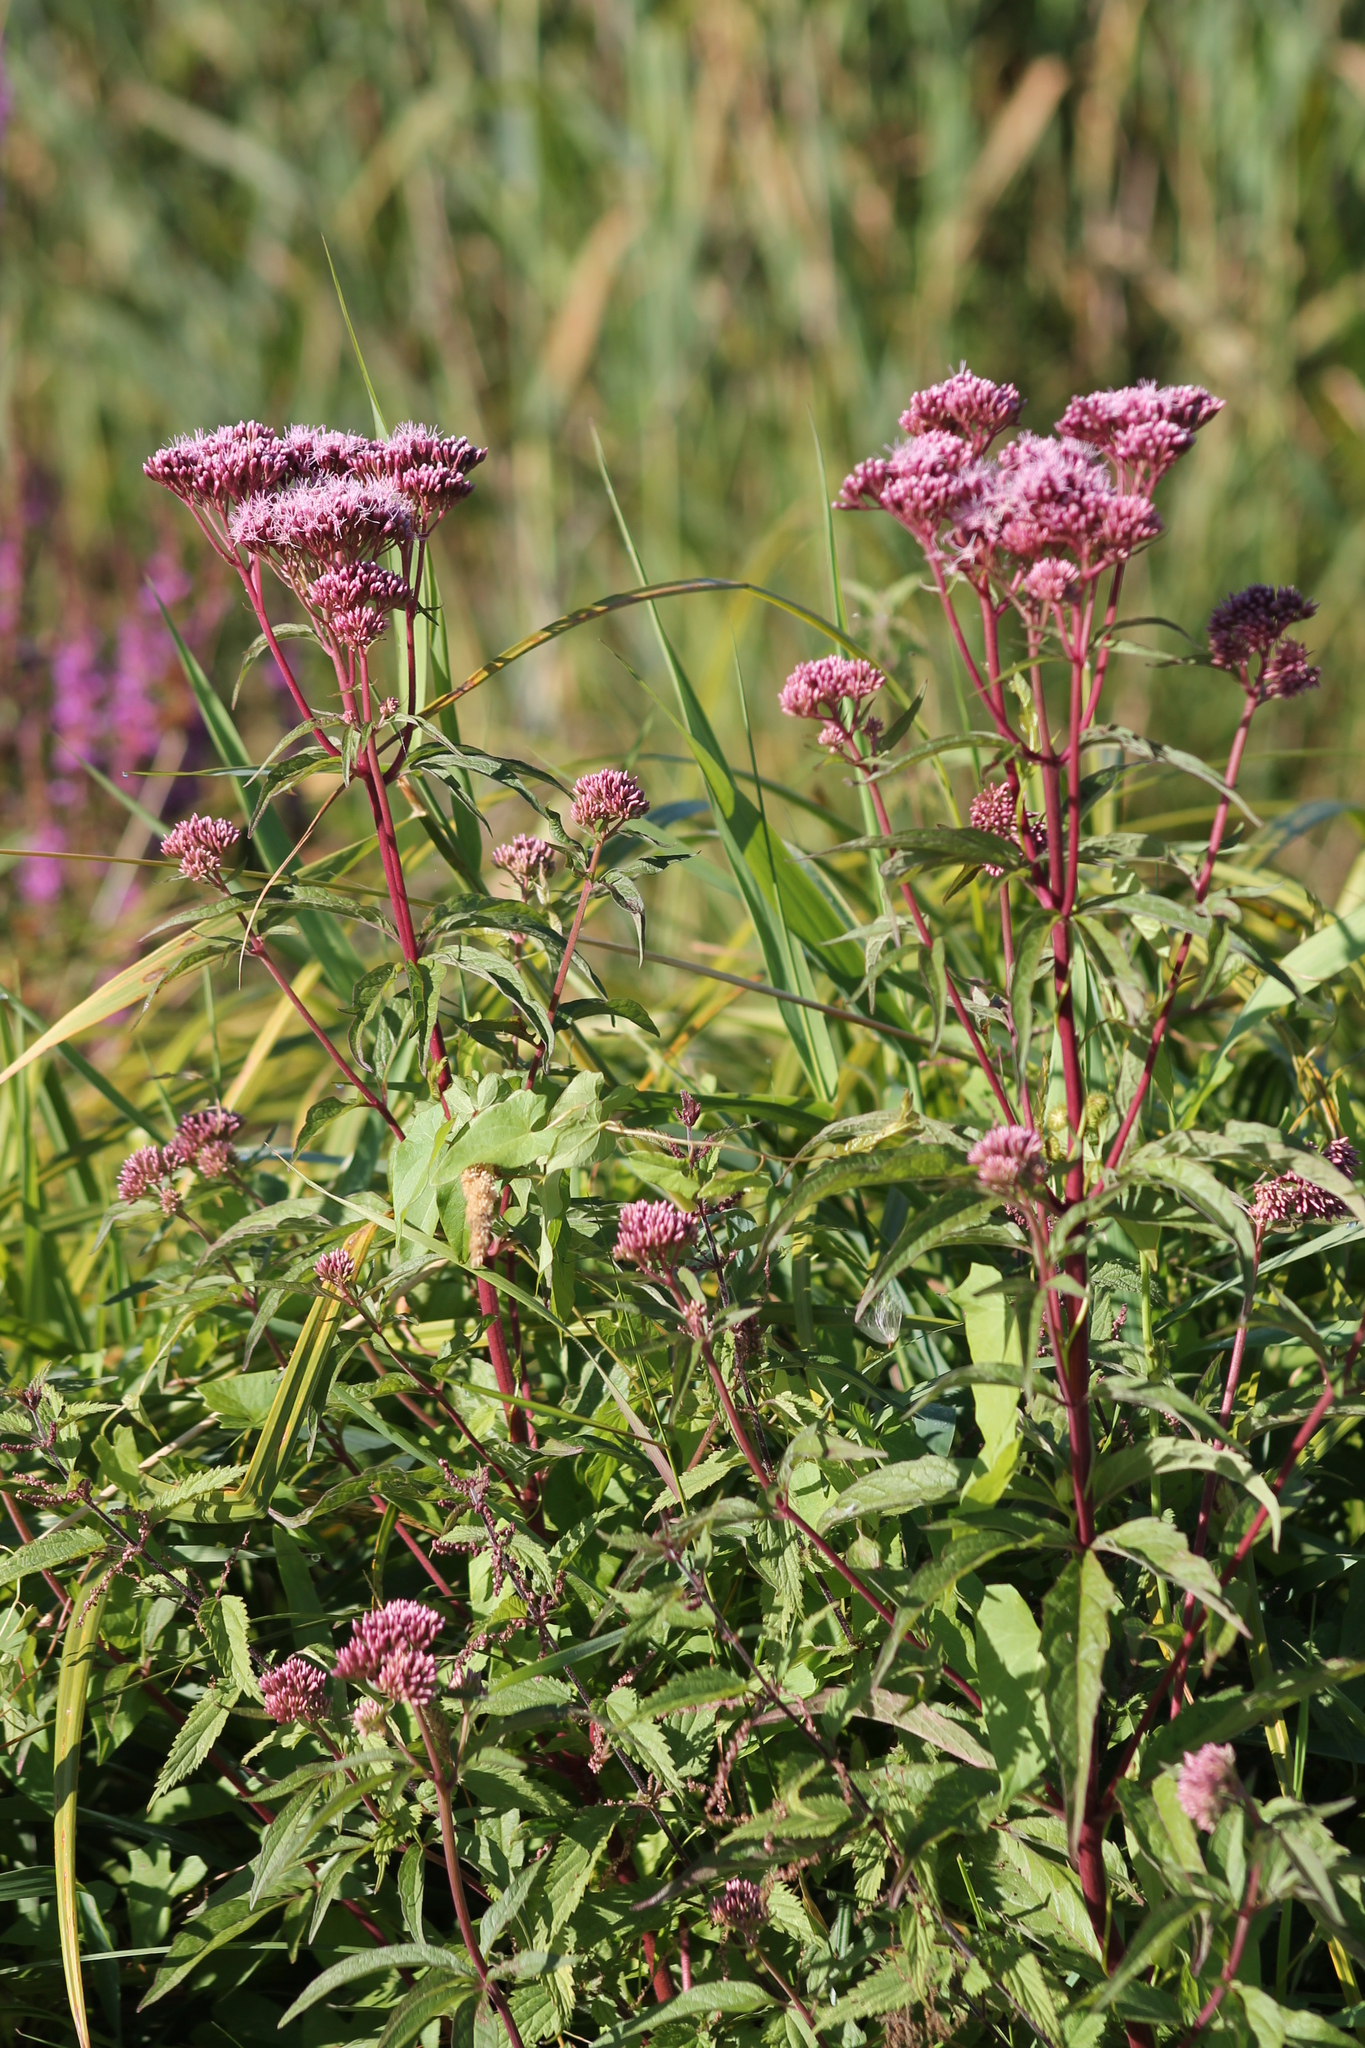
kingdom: Plantae
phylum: Tracheophyta
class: Magnoliopsida
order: Asterales
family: Asteraceae
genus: Eupatorium
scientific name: Eupatorium cannabinum
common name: Hemp-agrimony
